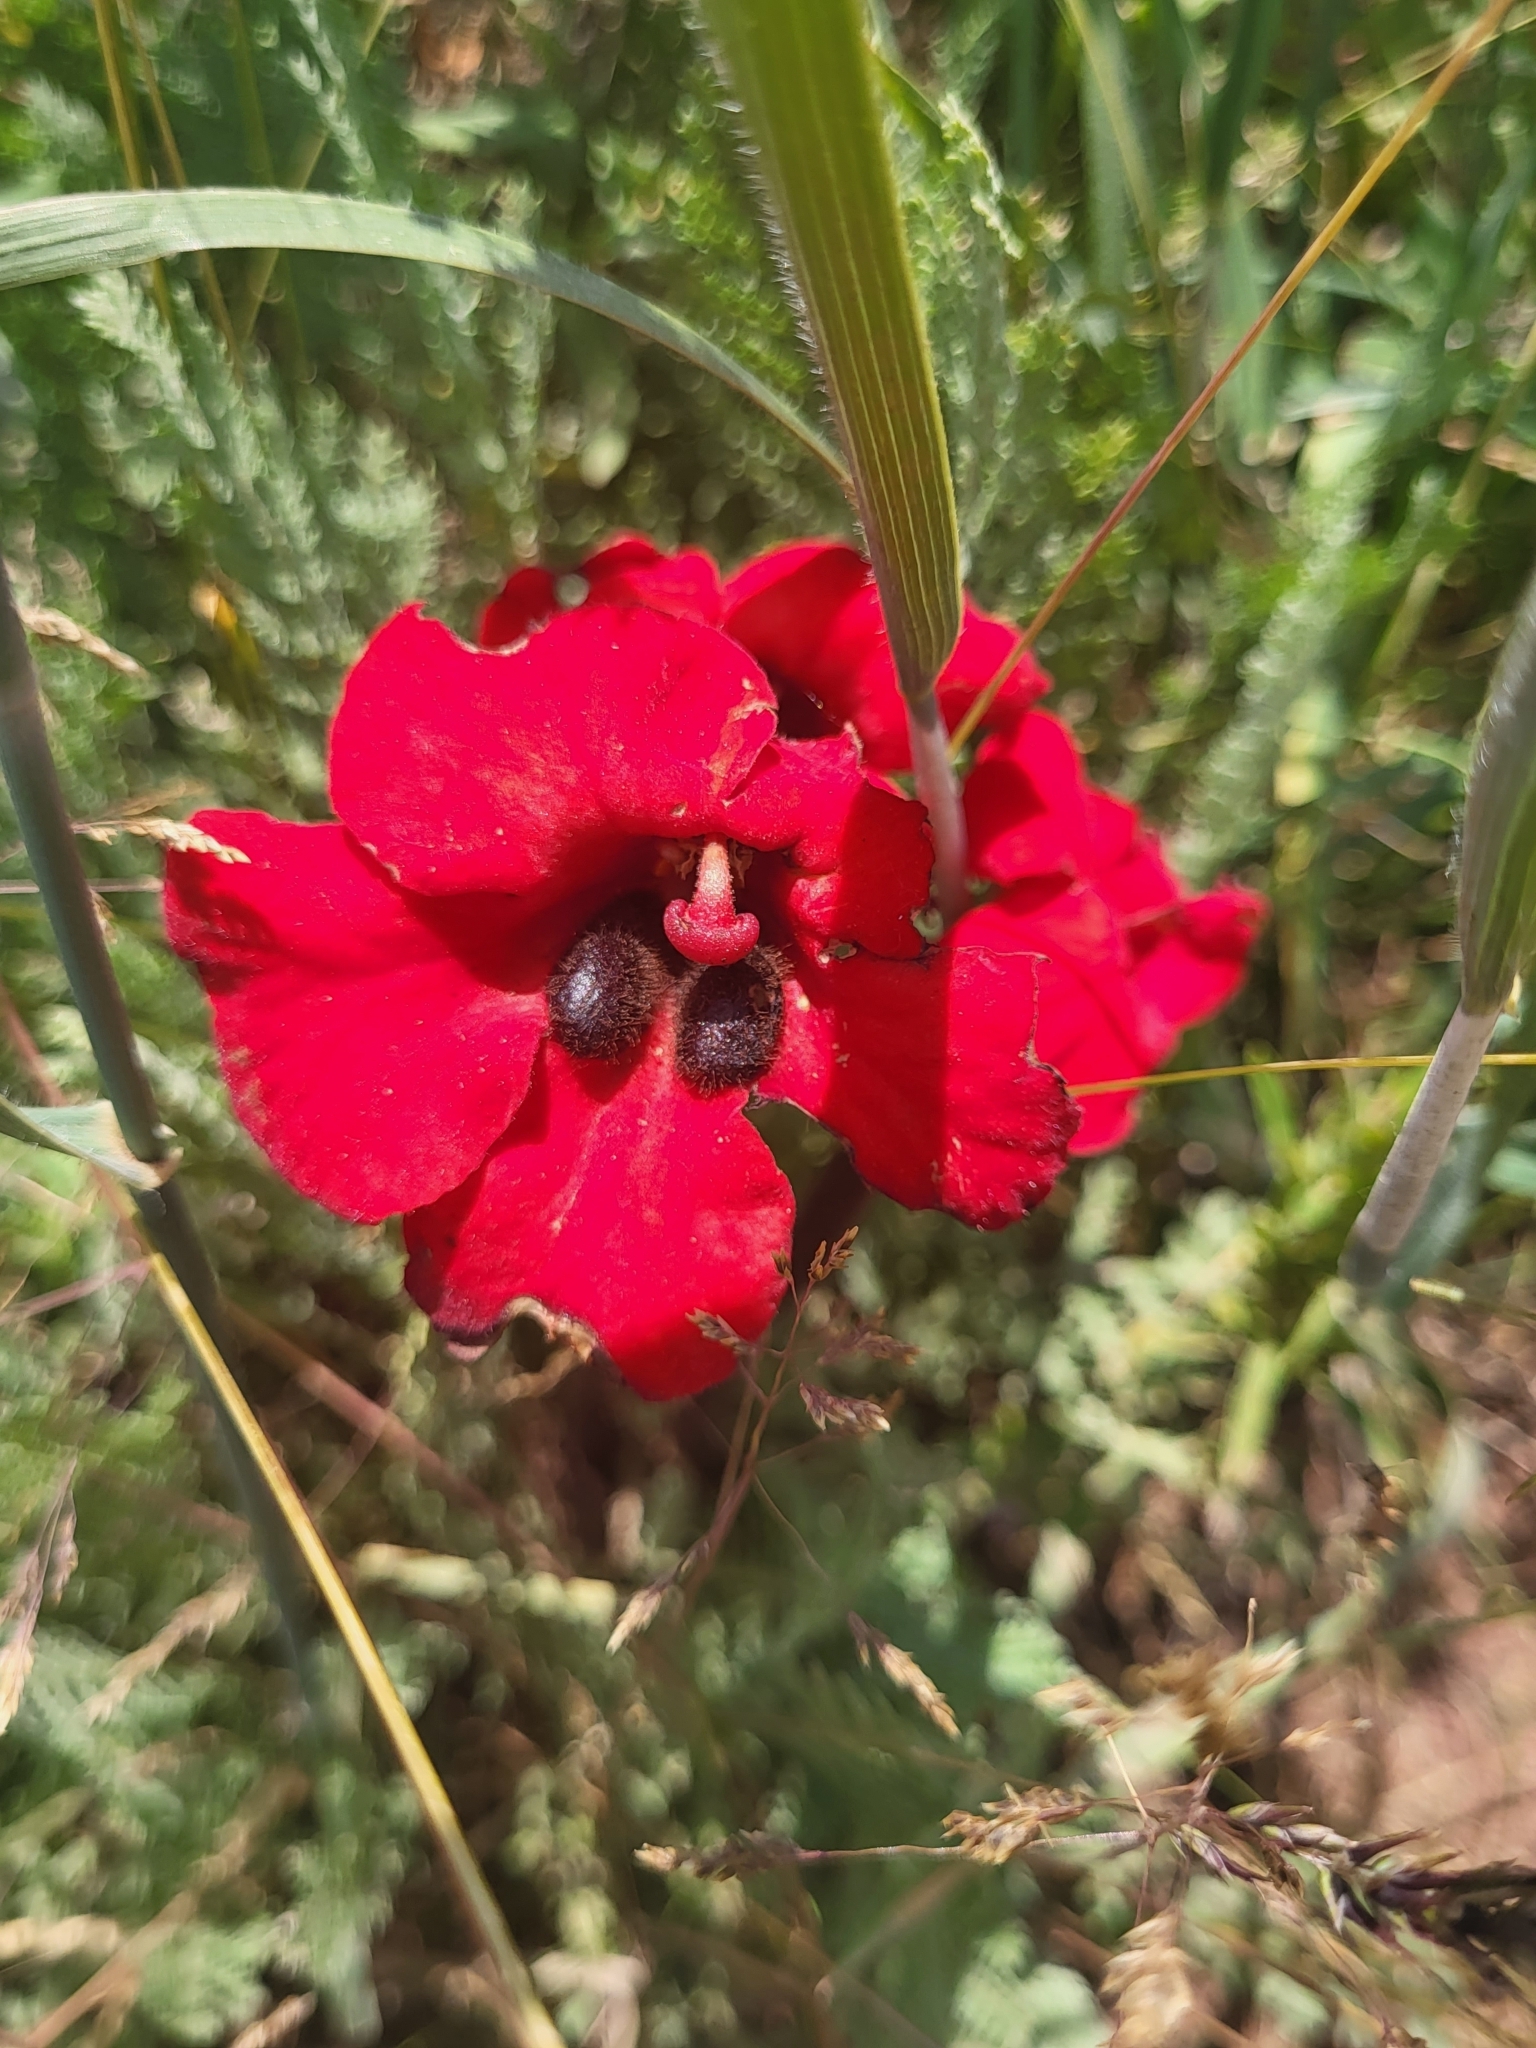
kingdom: Plantae
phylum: Tracheophyta
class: Magnoliopsida
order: Lamiales
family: Orobanchaceae
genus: Diphelypaea
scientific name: Diphelypaea coccinea
